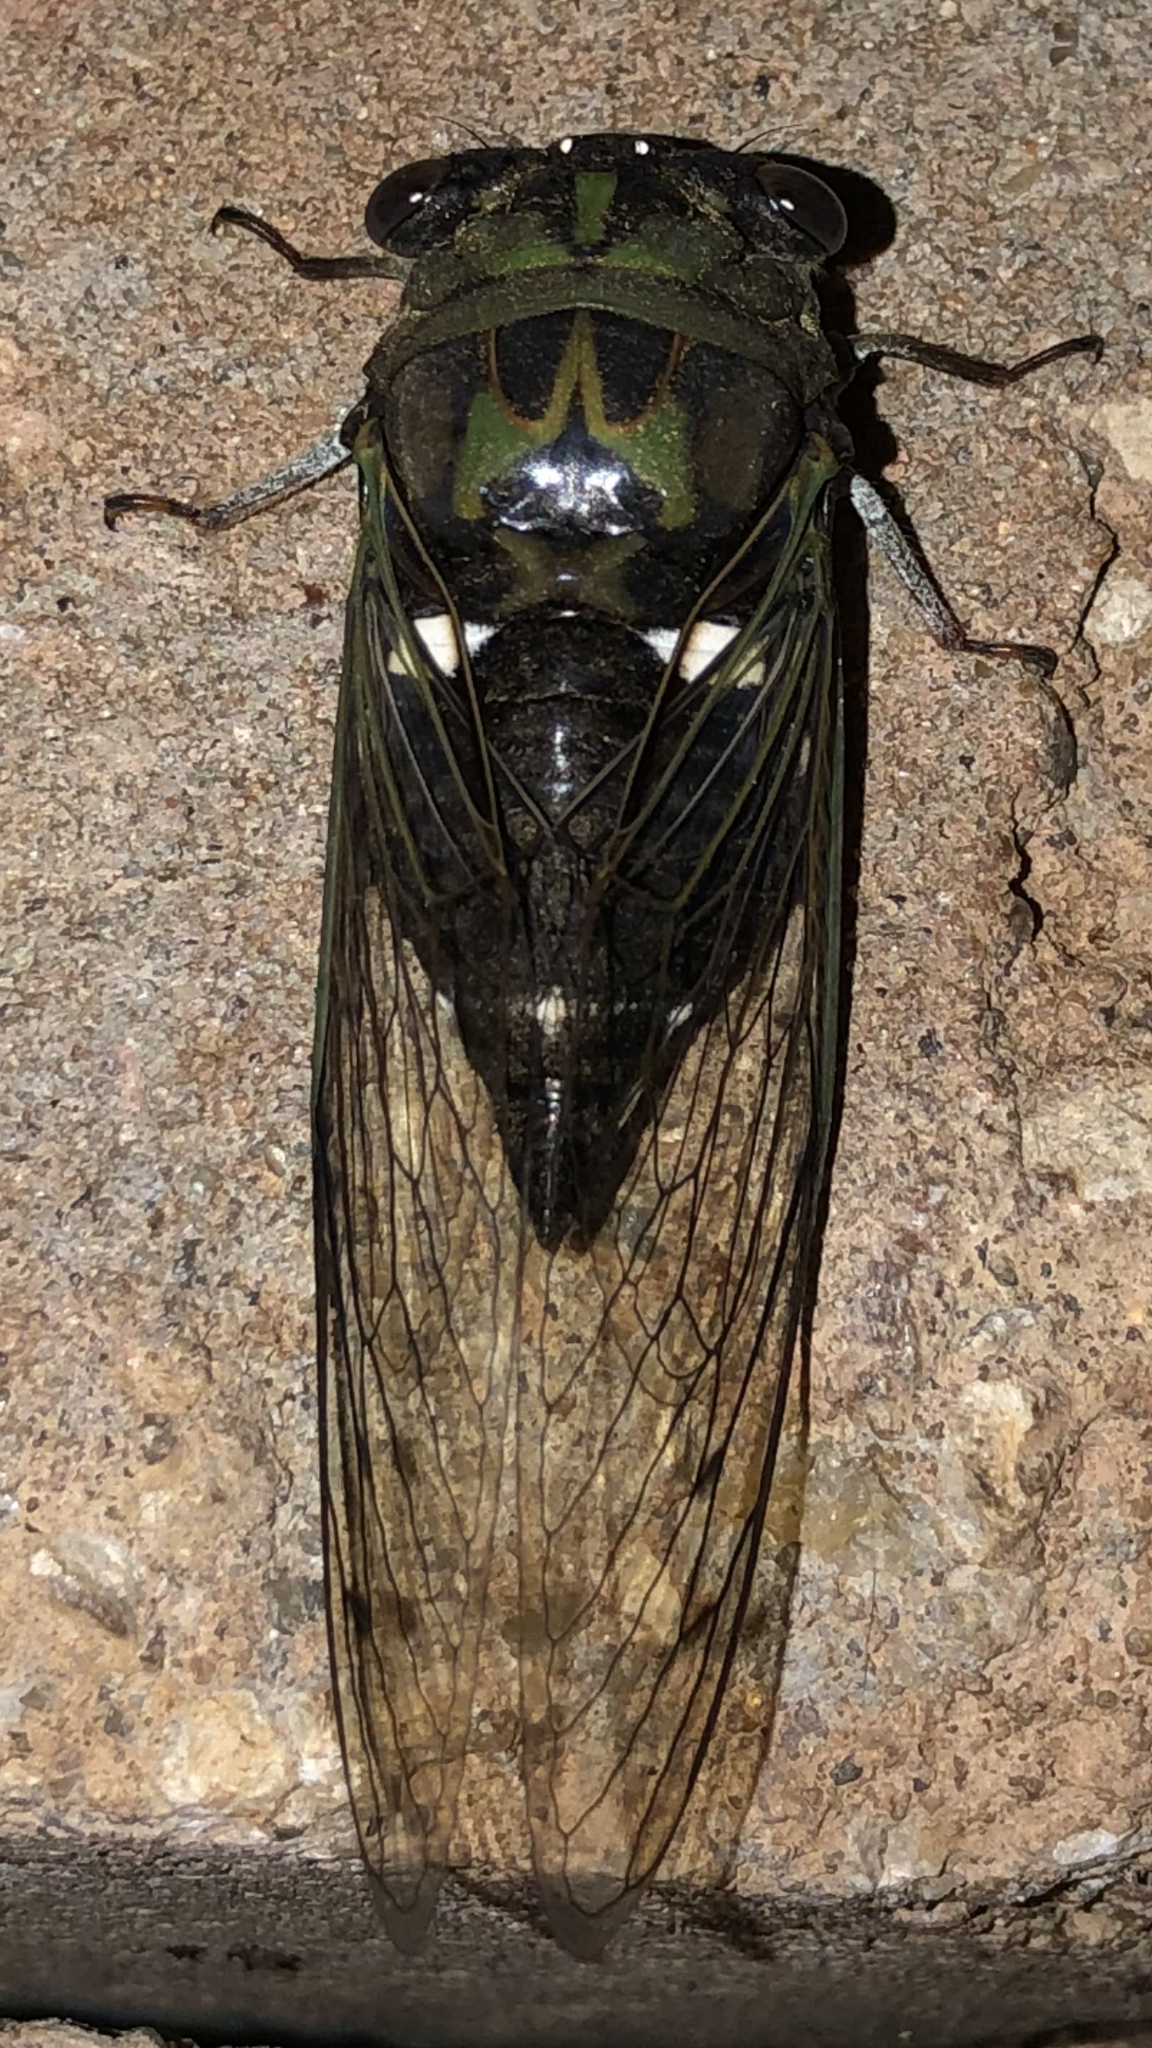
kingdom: Animalia
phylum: Arthropoda
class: Insecta
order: Hemiptera
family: Cicadidae
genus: Neotibicen
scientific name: Neotibicen pruinosus
